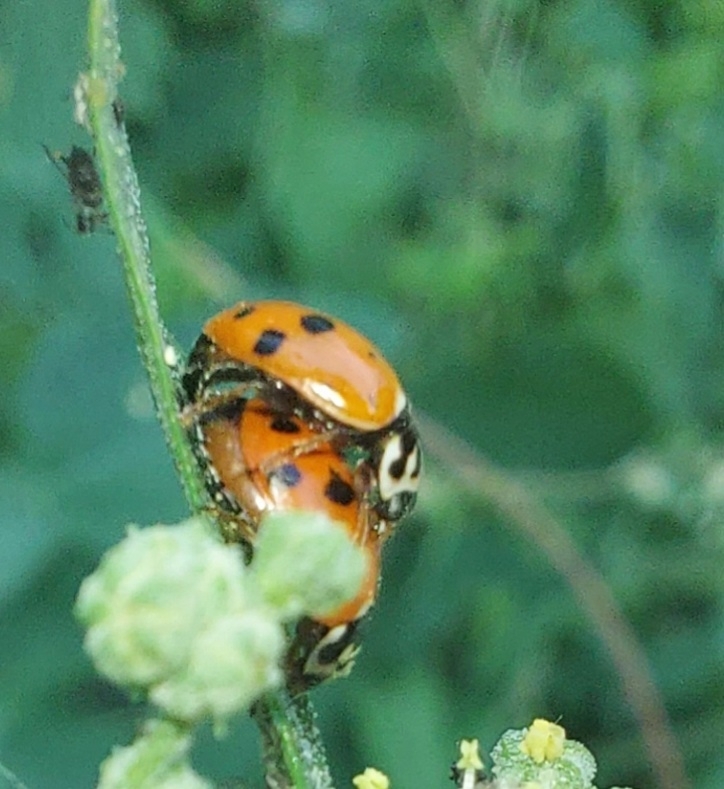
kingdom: Animalia
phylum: Arthropoda
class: Insecta
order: Coleoptera
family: Coccinellidae
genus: Hippodamia
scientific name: Hippodamia variegata
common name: Ladybird beetle
